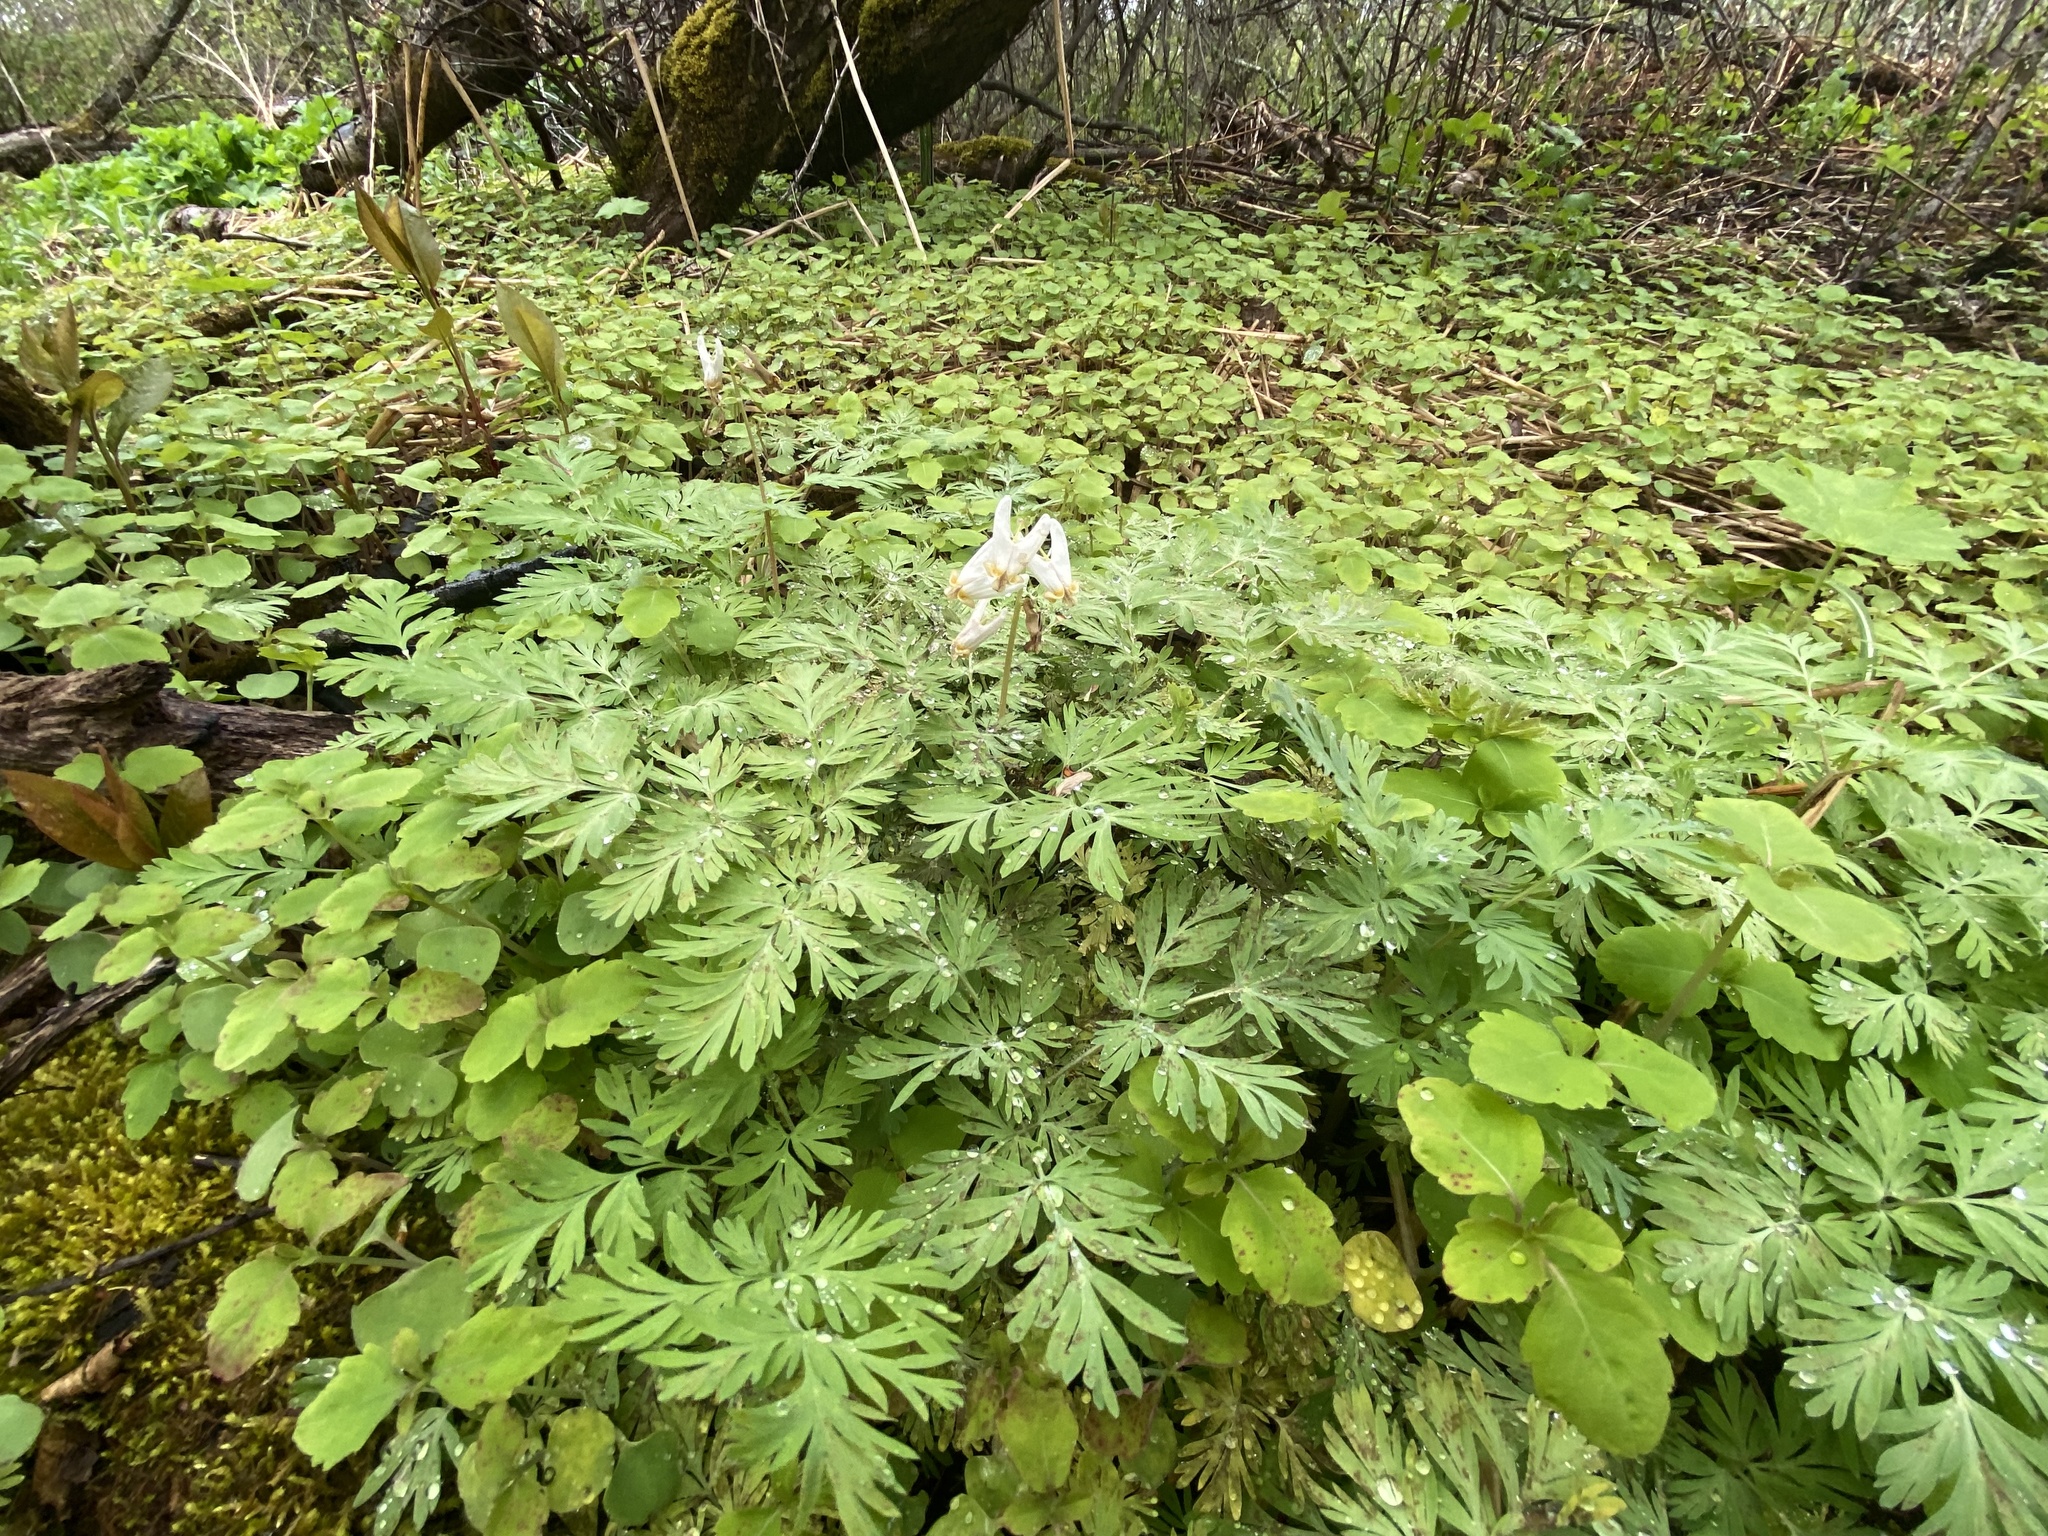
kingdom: Plantae
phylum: Tracheophyta
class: Magnoliopsida
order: Ranunculales
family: Papaveraceae
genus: Dicentra
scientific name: Dicentra cucullaria
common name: Dutchman's breeches
